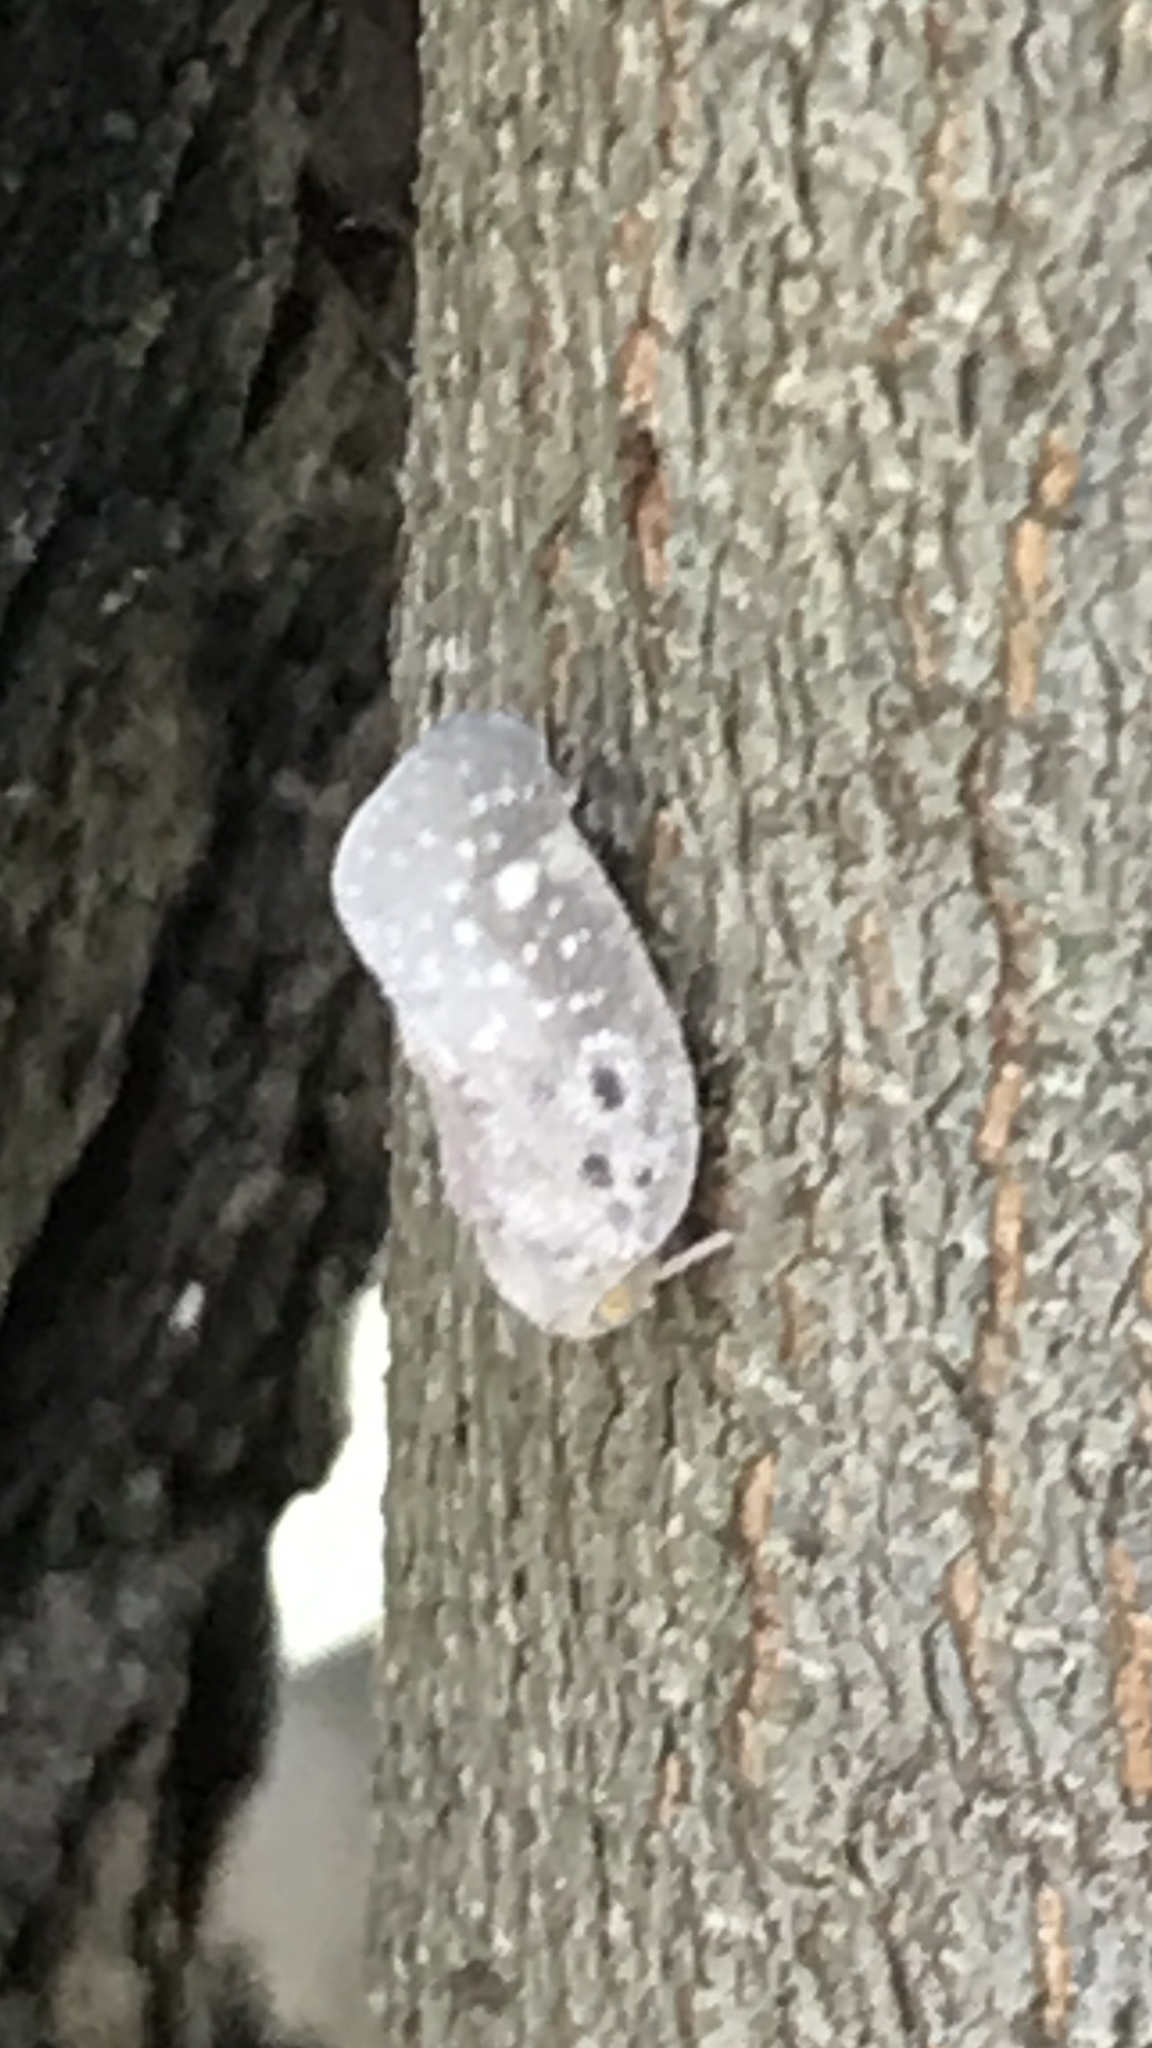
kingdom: Animalia
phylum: Arthropoda
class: Insecta
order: Hemiptera
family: Flatidae
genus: Metcalfa
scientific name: Metcalfa pruinosa
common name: Citrus flatid planthopper
